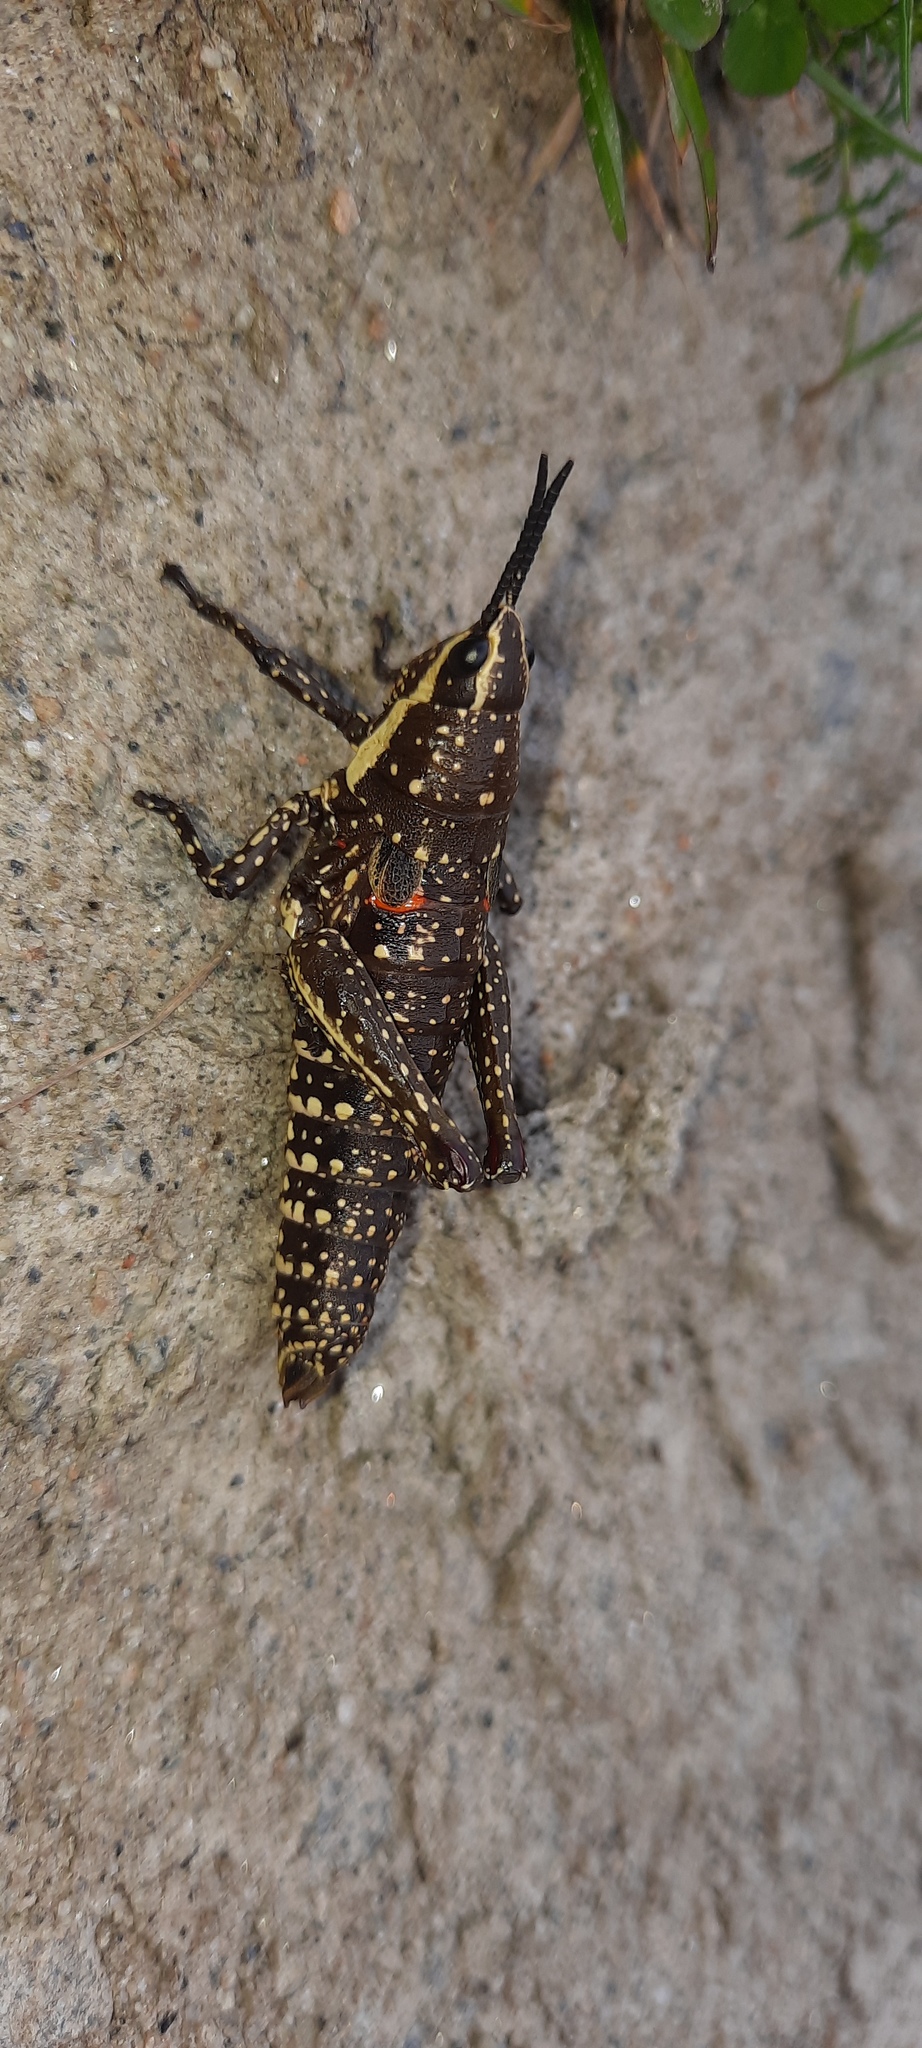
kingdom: Animalia
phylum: Arthropoda
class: Insecta
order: Orthoptera
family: Pyrgomorphidae
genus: Monistria
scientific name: Monistria concinna
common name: Southern pyrgomorph
